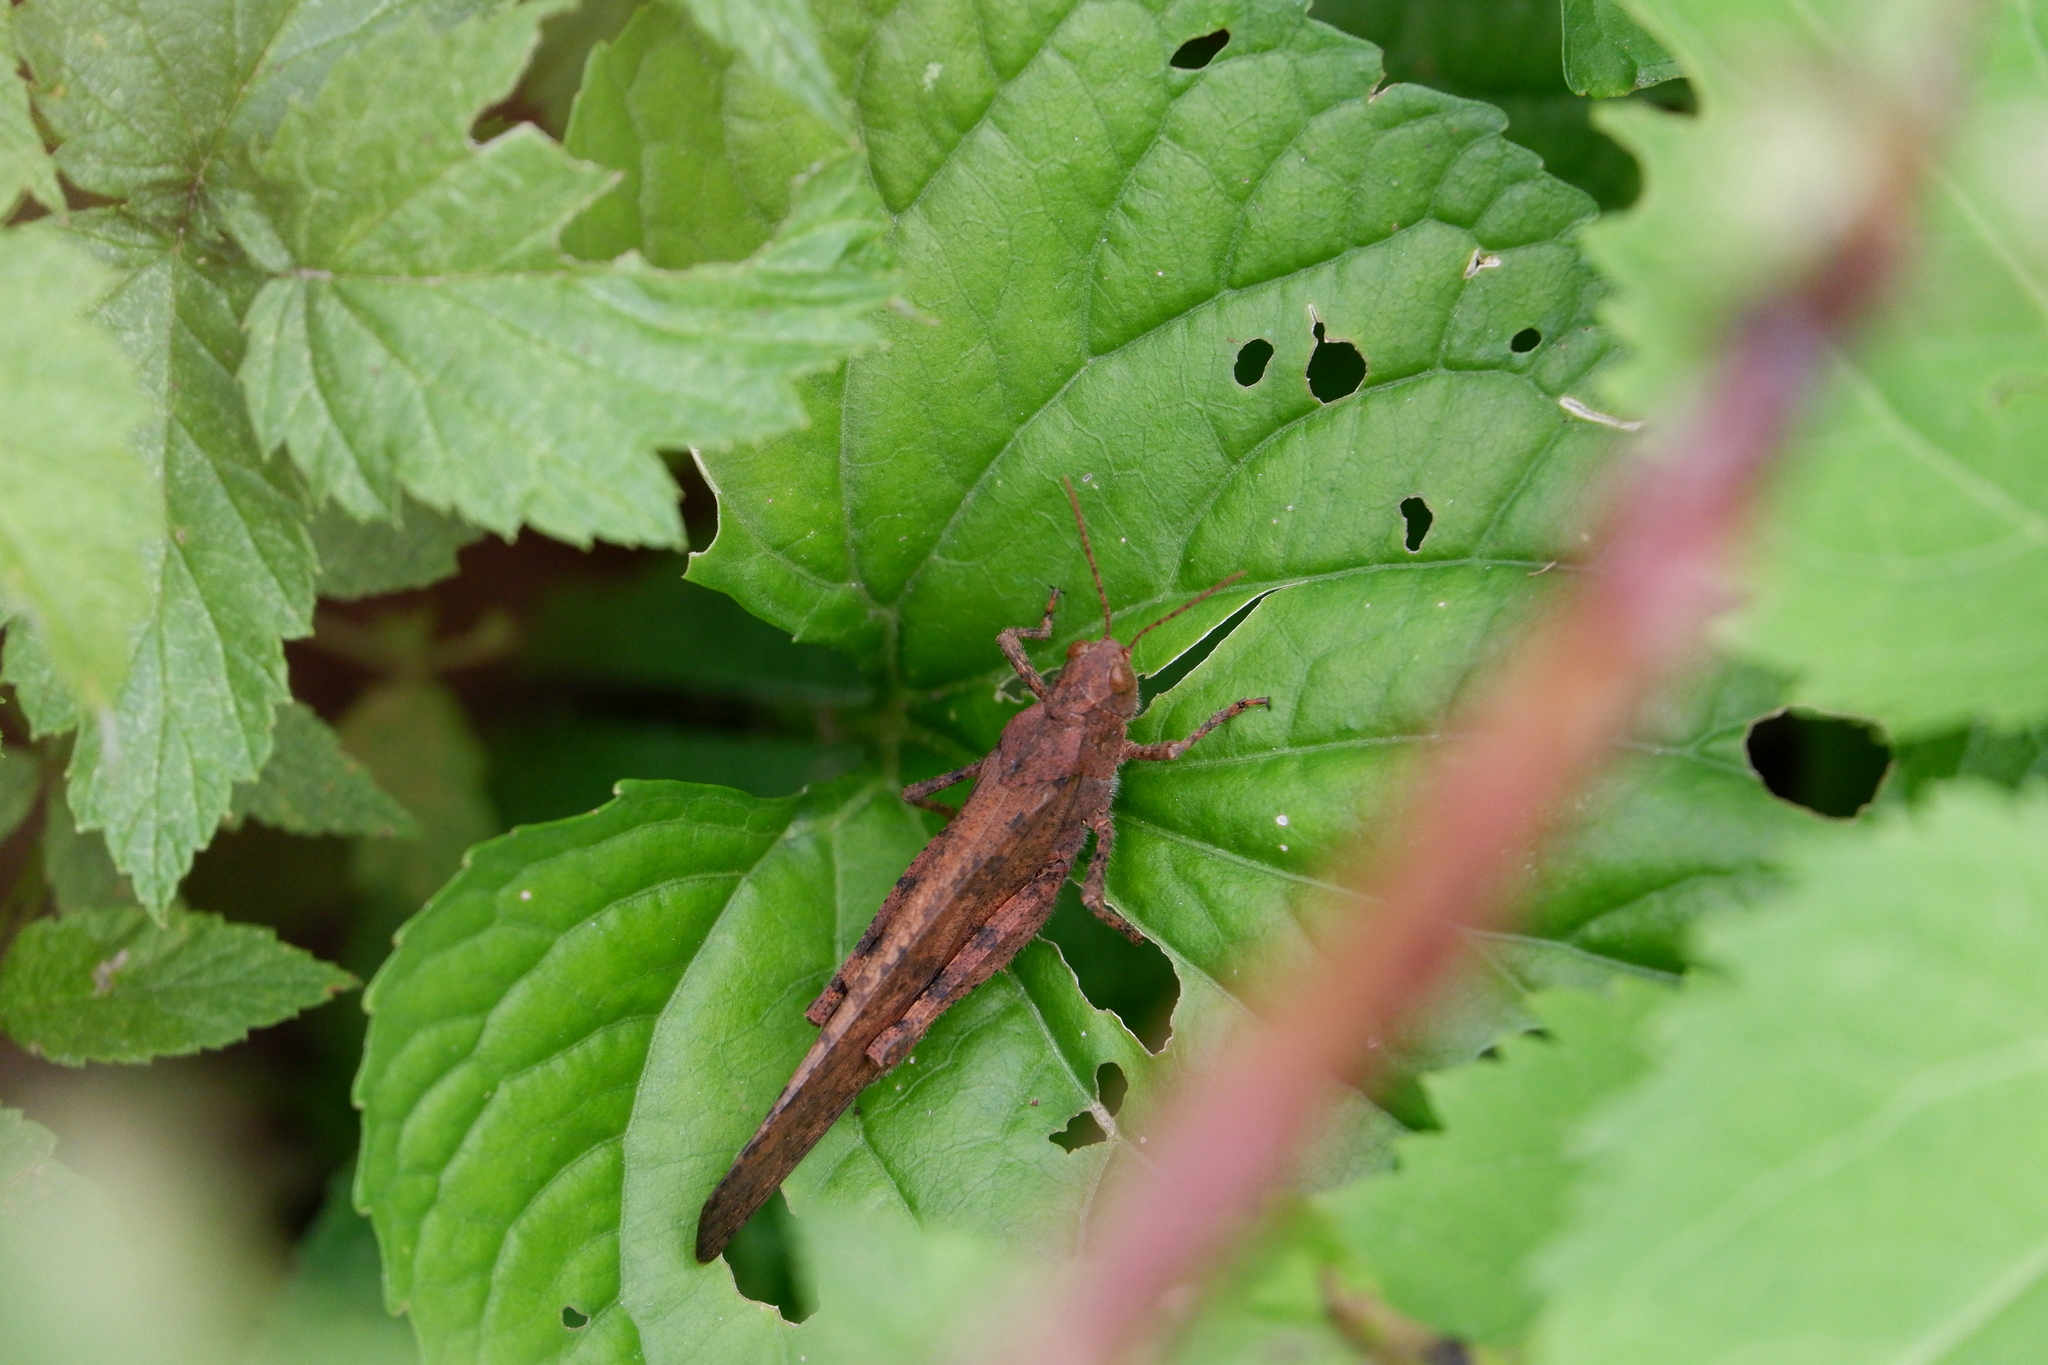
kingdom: Animalia
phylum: Arthropoda
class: Insecta
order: Orthoptera
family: Acrididae
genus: Dissosteira
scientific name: Dissosteira carolina
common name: Carolina grasshopper
